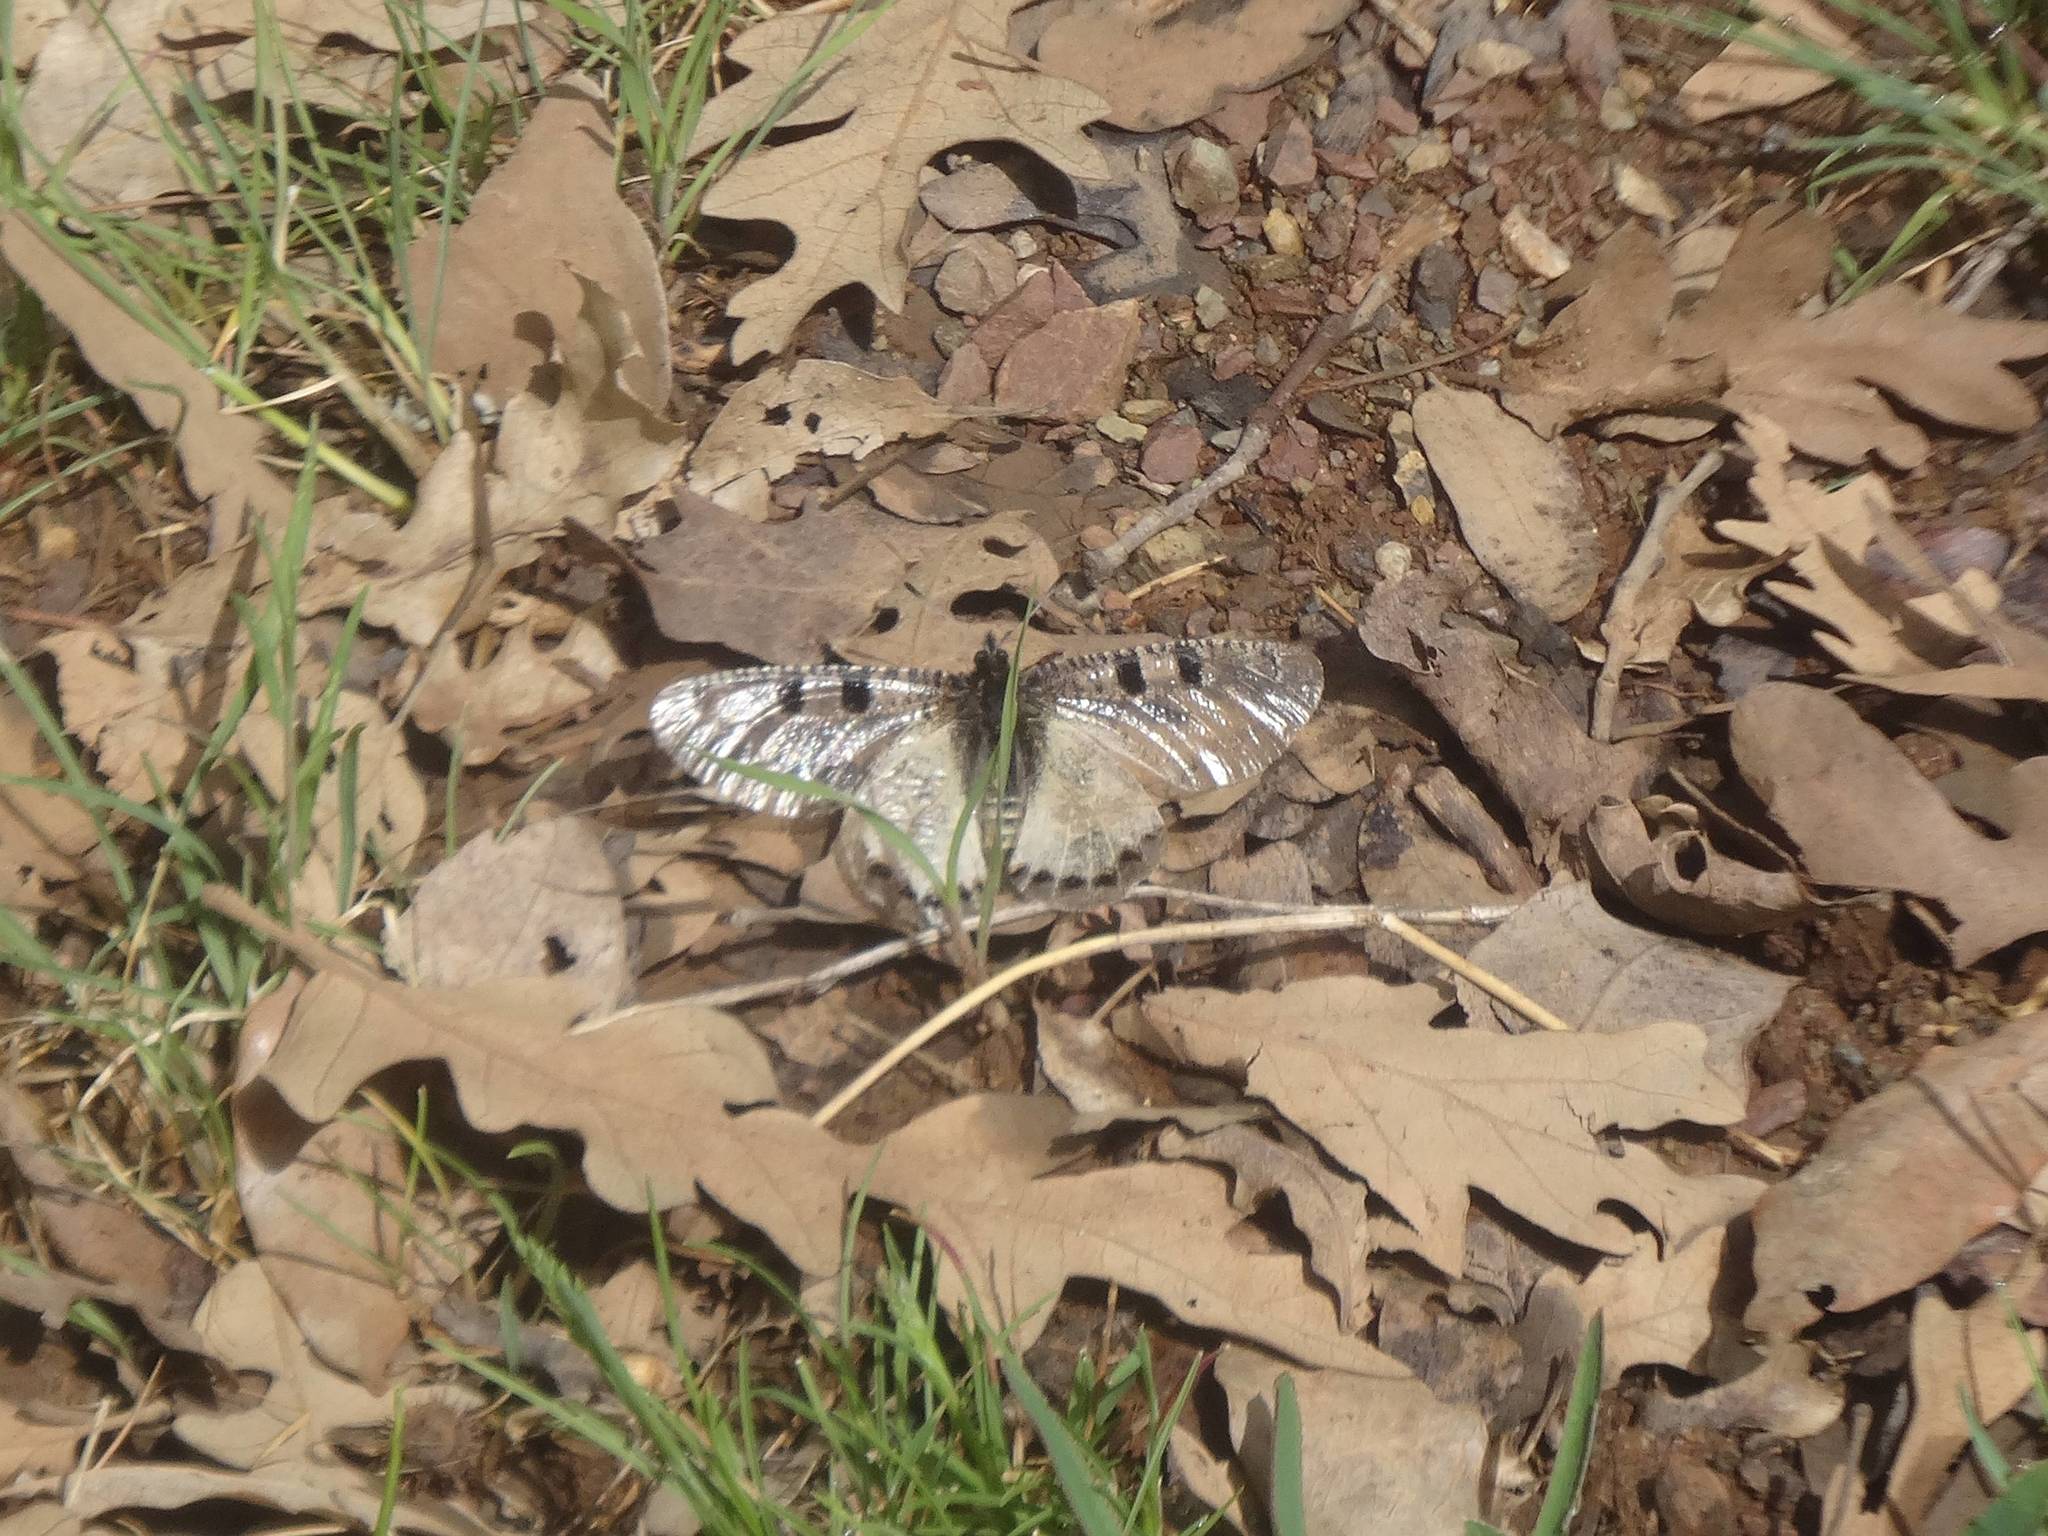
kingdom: Animalia
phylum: Arthropoda
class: Insecta
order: Lepidoptera
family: Papilionidae
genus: Archon
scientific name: Archon apollinus
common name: False apollo
